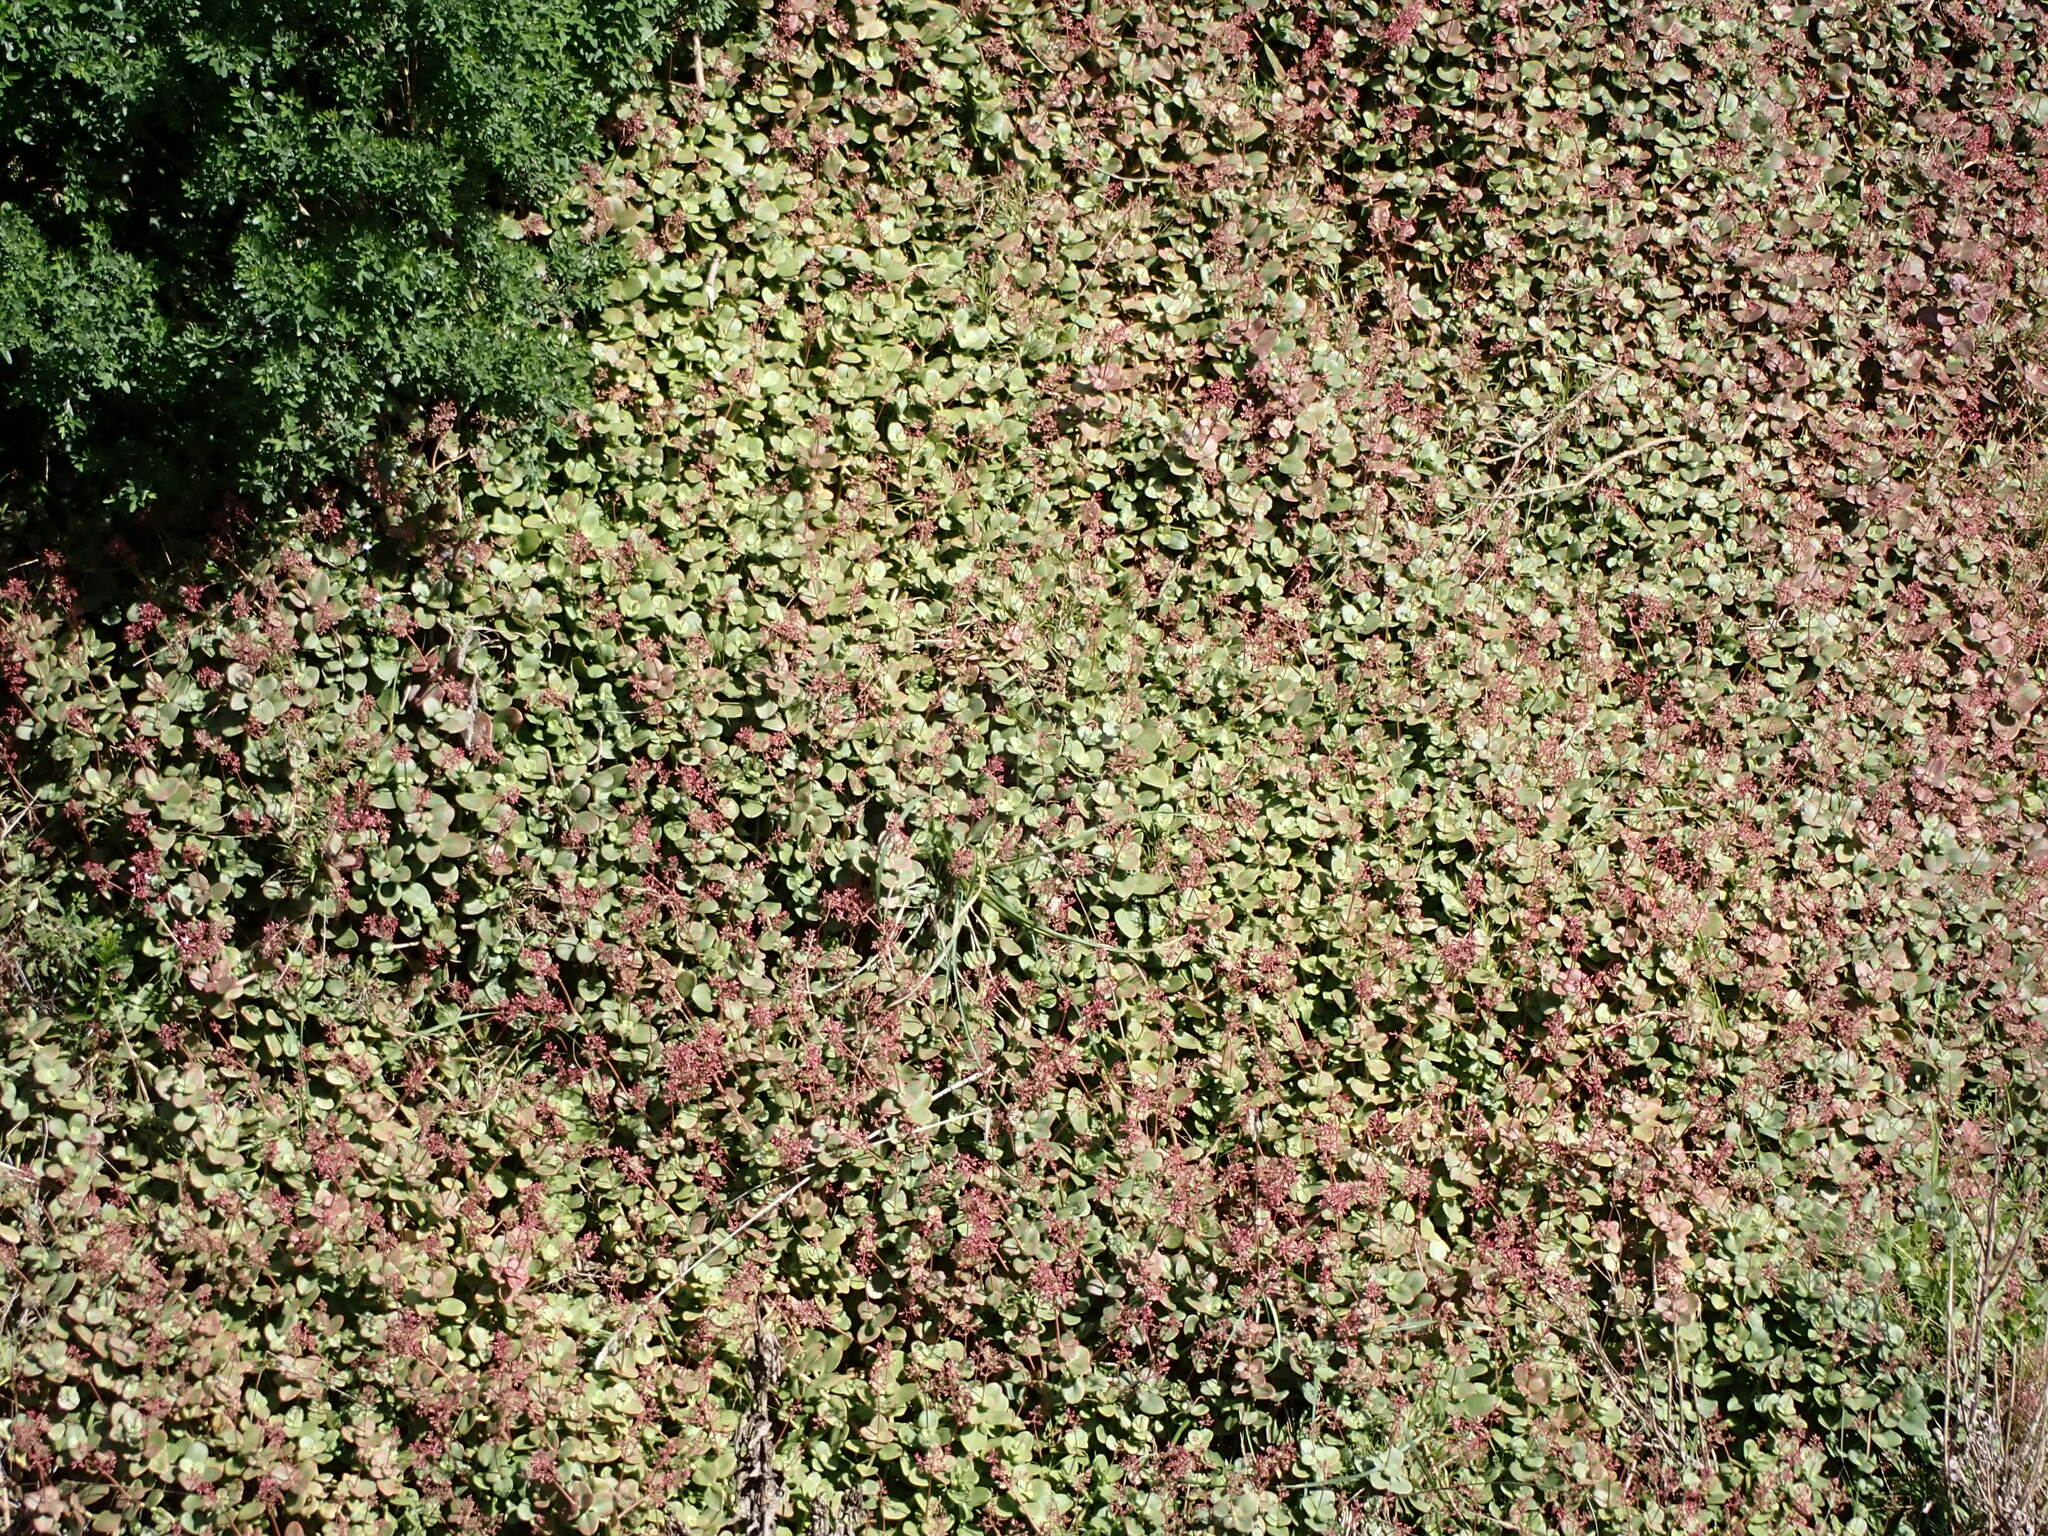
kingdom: Plantae
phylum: Tracheophyta
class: Magnoliopsida
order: Saxifragales
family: Crassulaceae
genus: Crassula
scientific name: Crassula multicava
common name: Cape province pygmyweed
